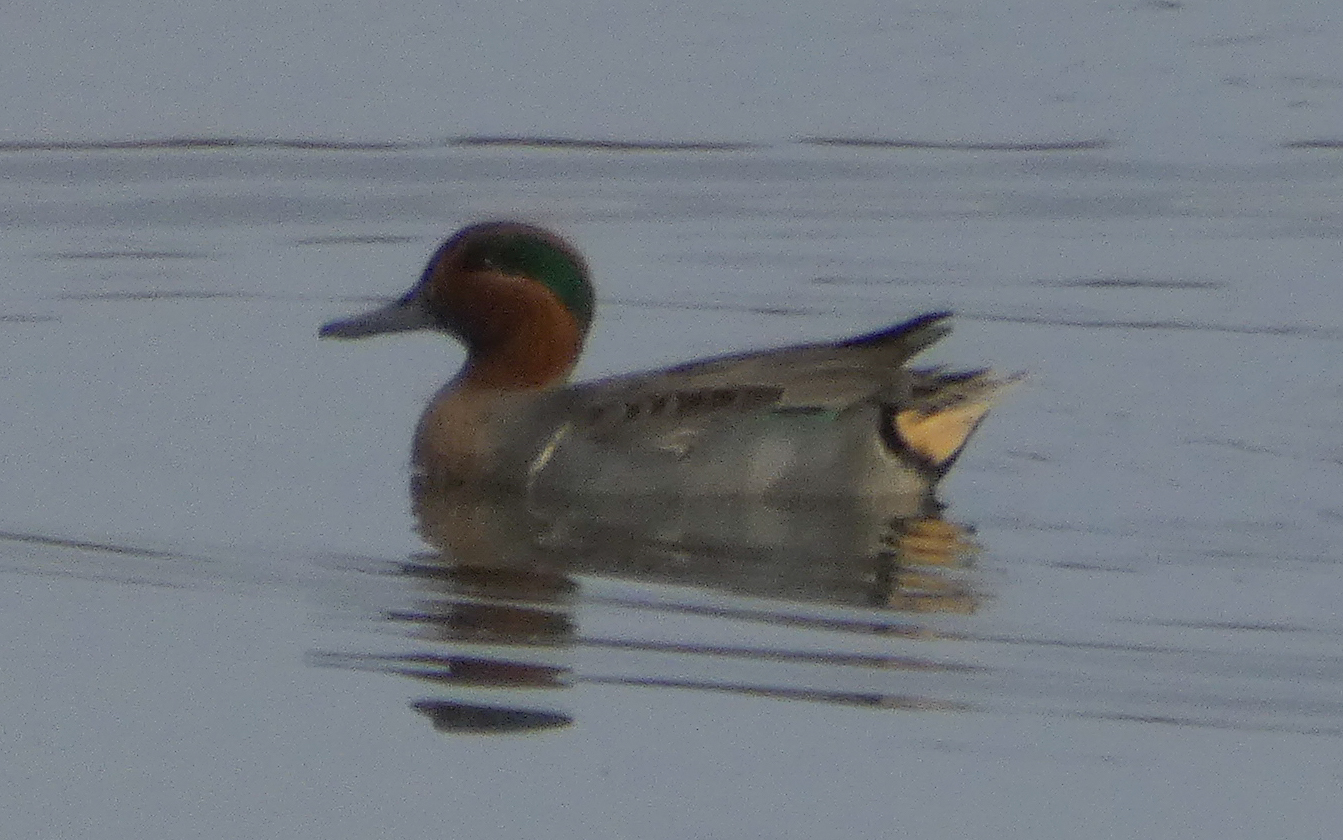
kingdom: Animalia
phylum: Chordata
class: Aves
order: Anseriformes
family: Anatidae
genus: Anas
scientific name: Anas crecca
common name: Eurasian teal
